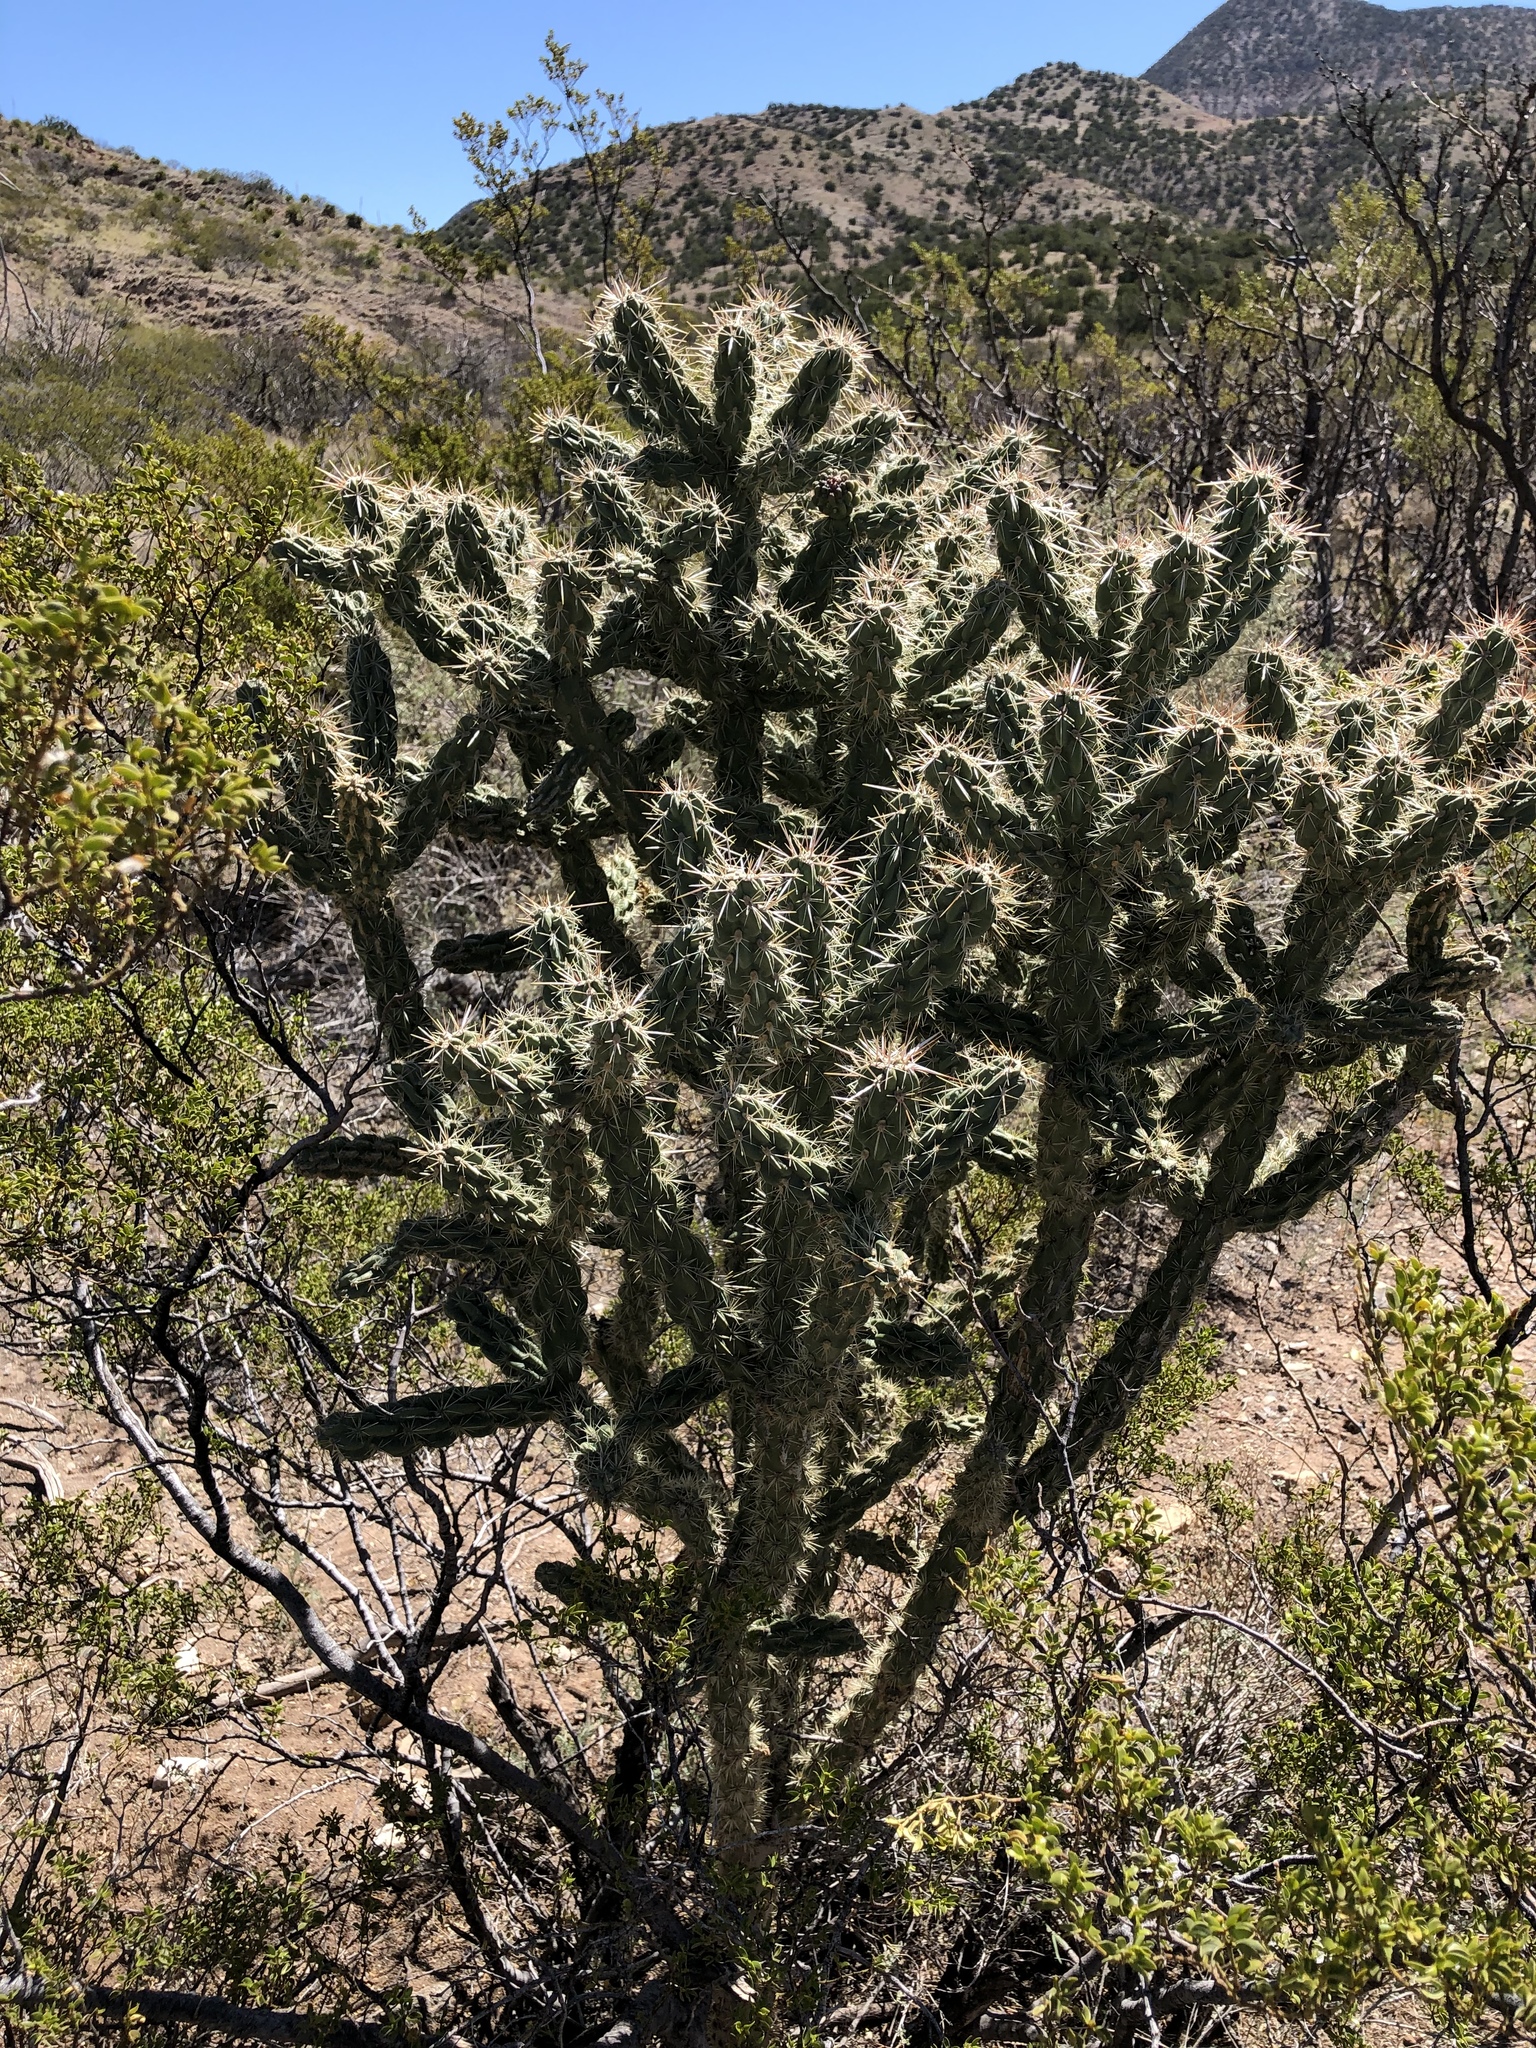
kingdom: Plantae
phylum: Tracheophyta
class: Magnoliopsida
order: Caryophyllales
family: Cactaceae
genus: Cylindropuntia
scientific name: Cylindropuntia imbricata
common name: Candelabrum cactus
